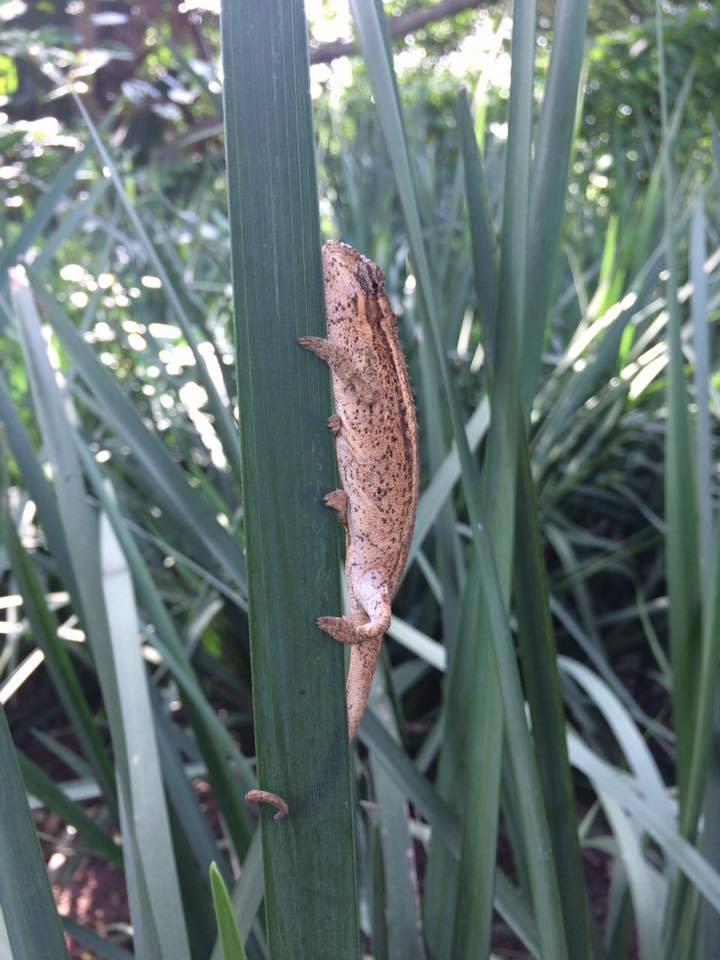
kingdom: Animalia
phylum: Chordata
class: Squamata
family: Chamaeleonidae
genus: Bradypodion
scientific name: Bradypodion melanocephalum
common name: Black-headed dwarf chameleon
